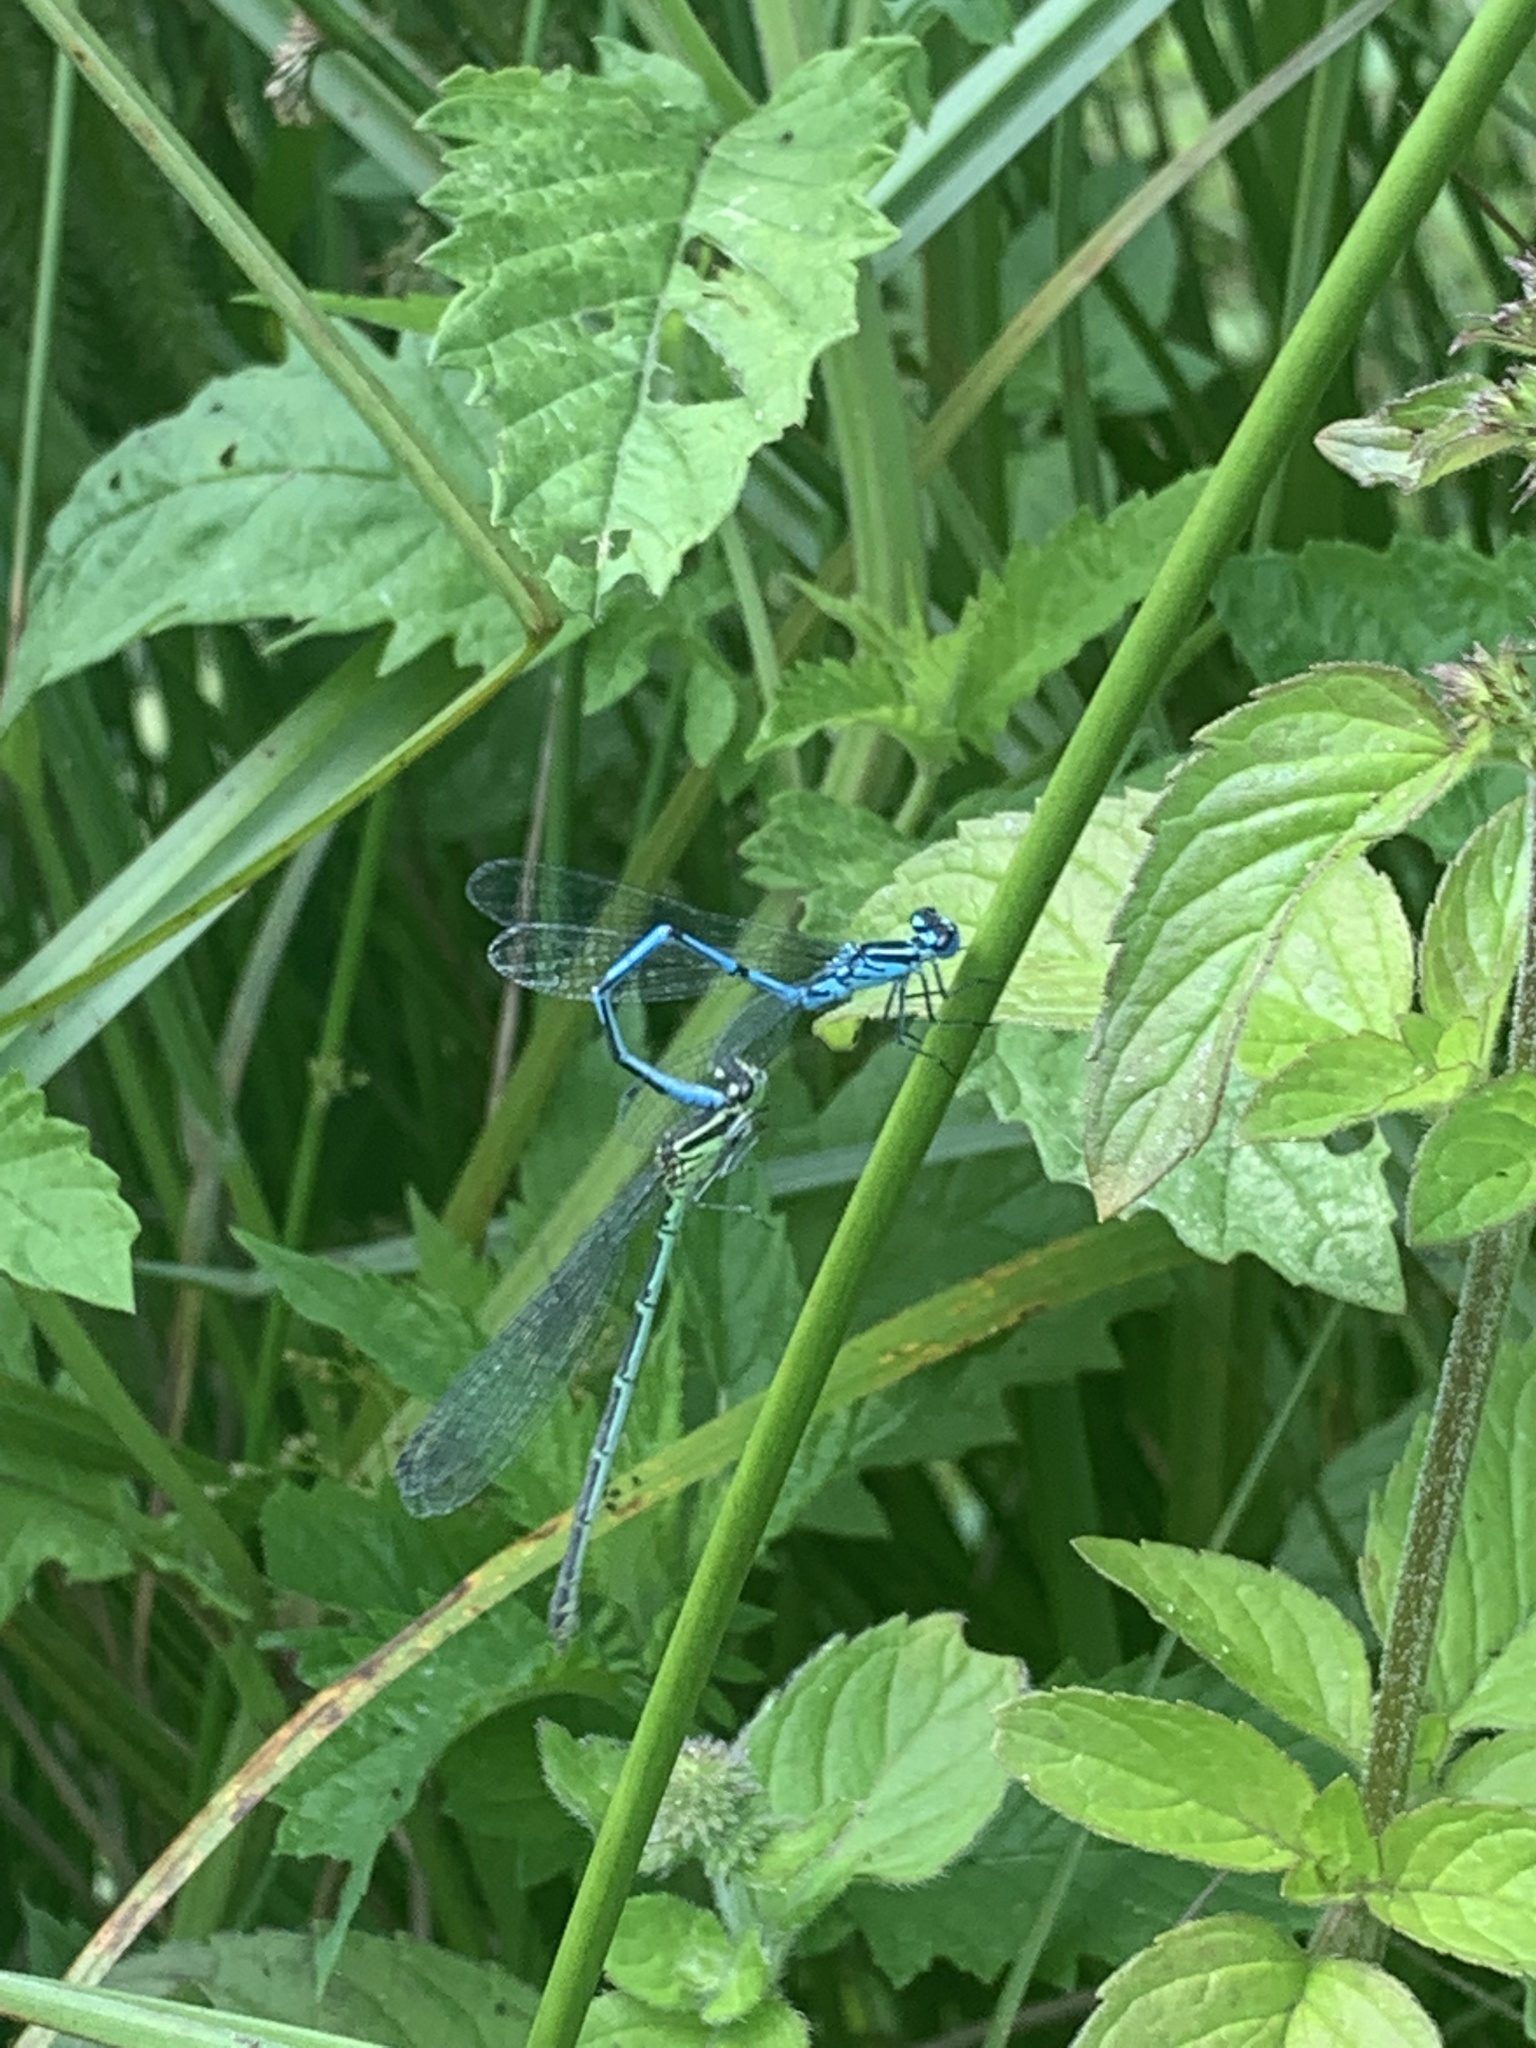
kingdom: Animalia
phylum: Arthropoda
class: Insecta
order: Odonata
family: Coenagrionidae
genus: Coenagrion
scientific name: Coenagrion puella
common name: Azure damselfly
